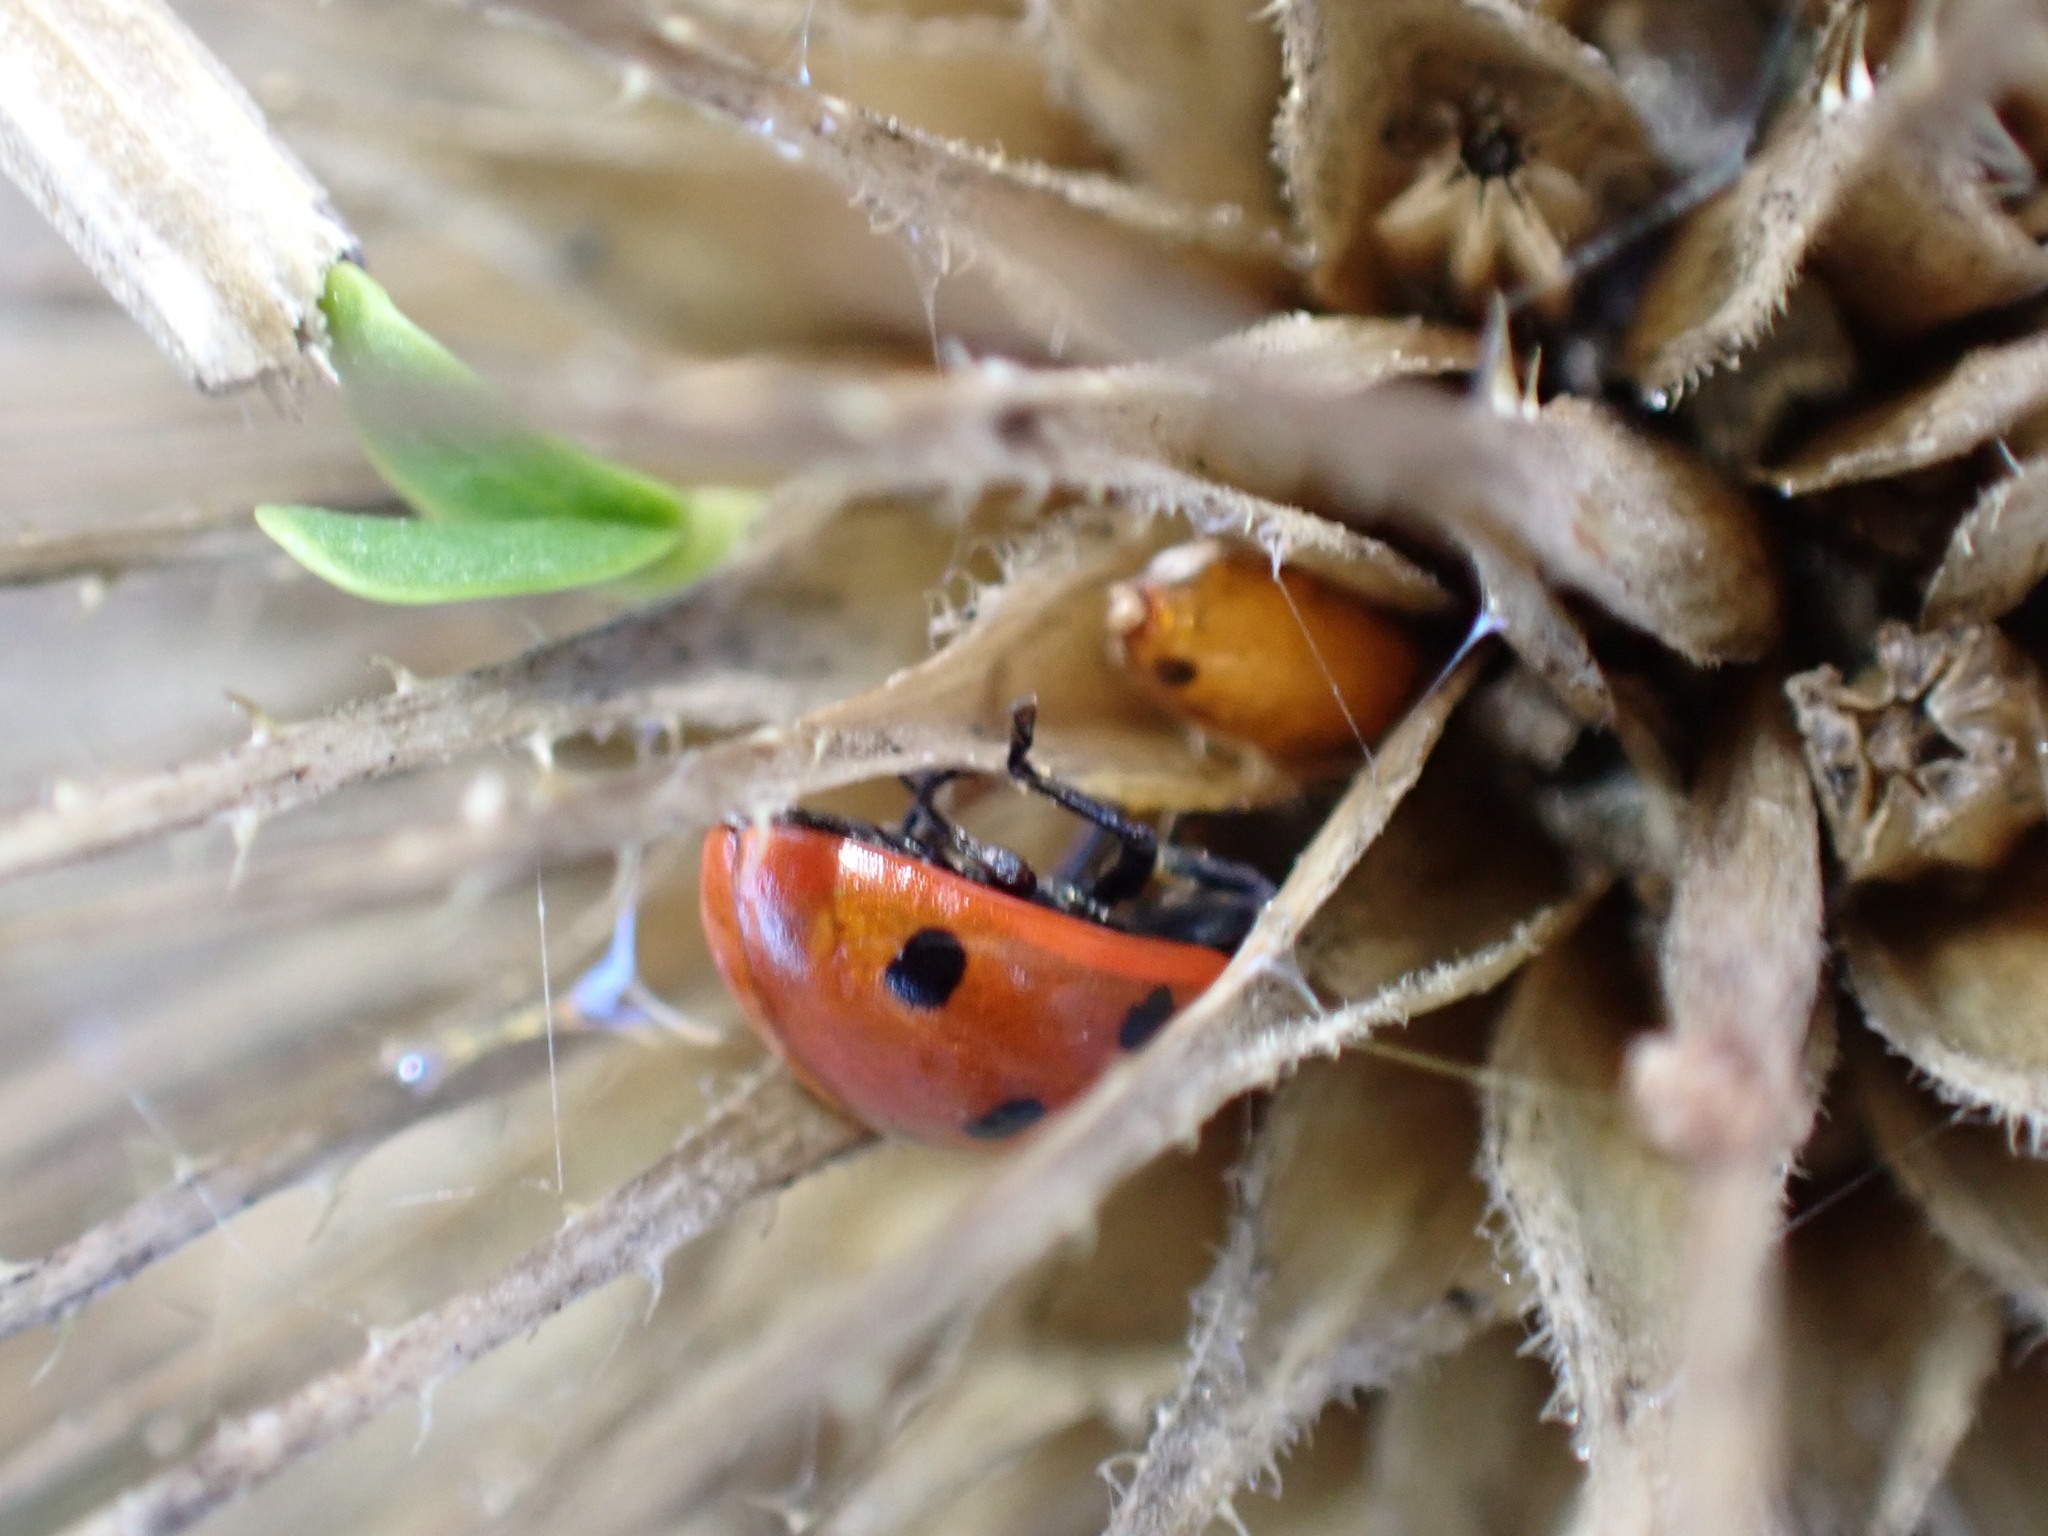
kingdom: Animalia
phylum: Arthropoda
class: Insecta
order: Coleoptera
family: Coccinellidae
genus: Coccinella
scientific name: Coccinella septempunctata
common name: Sevenspotted lady beetle
